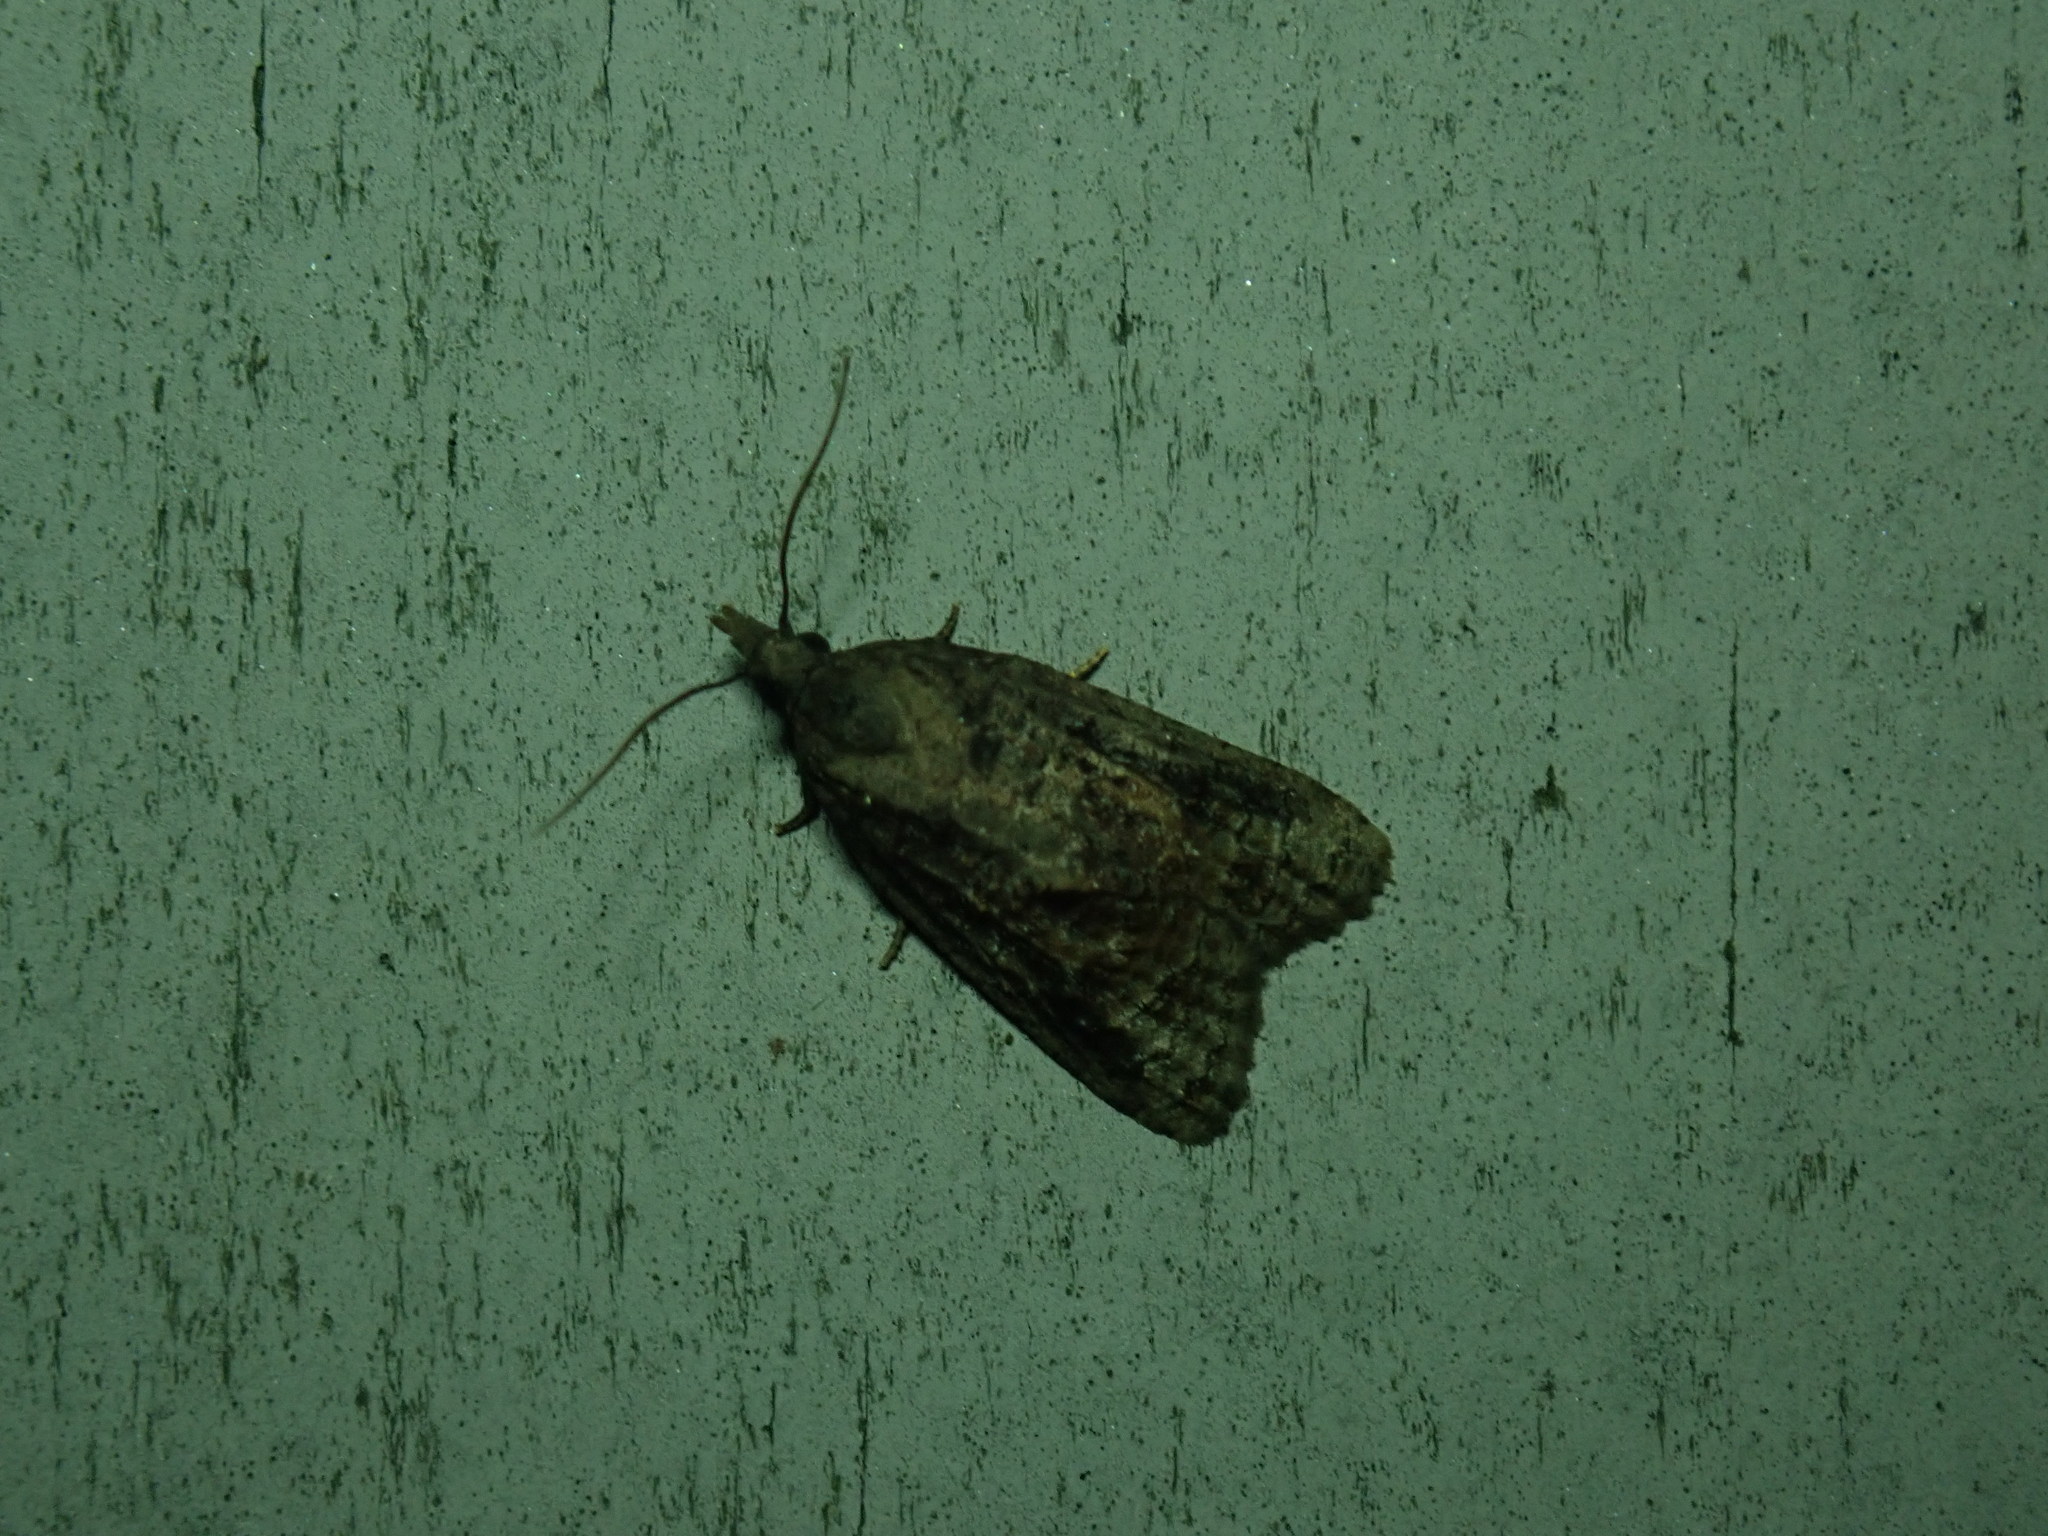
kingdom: Animalia
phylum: Arthropoda
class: Insecta
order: Lepidoptera
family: Tortricidae
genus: Platynota
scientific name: Platynota idaeusalis
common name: Tufted apple bud moth
